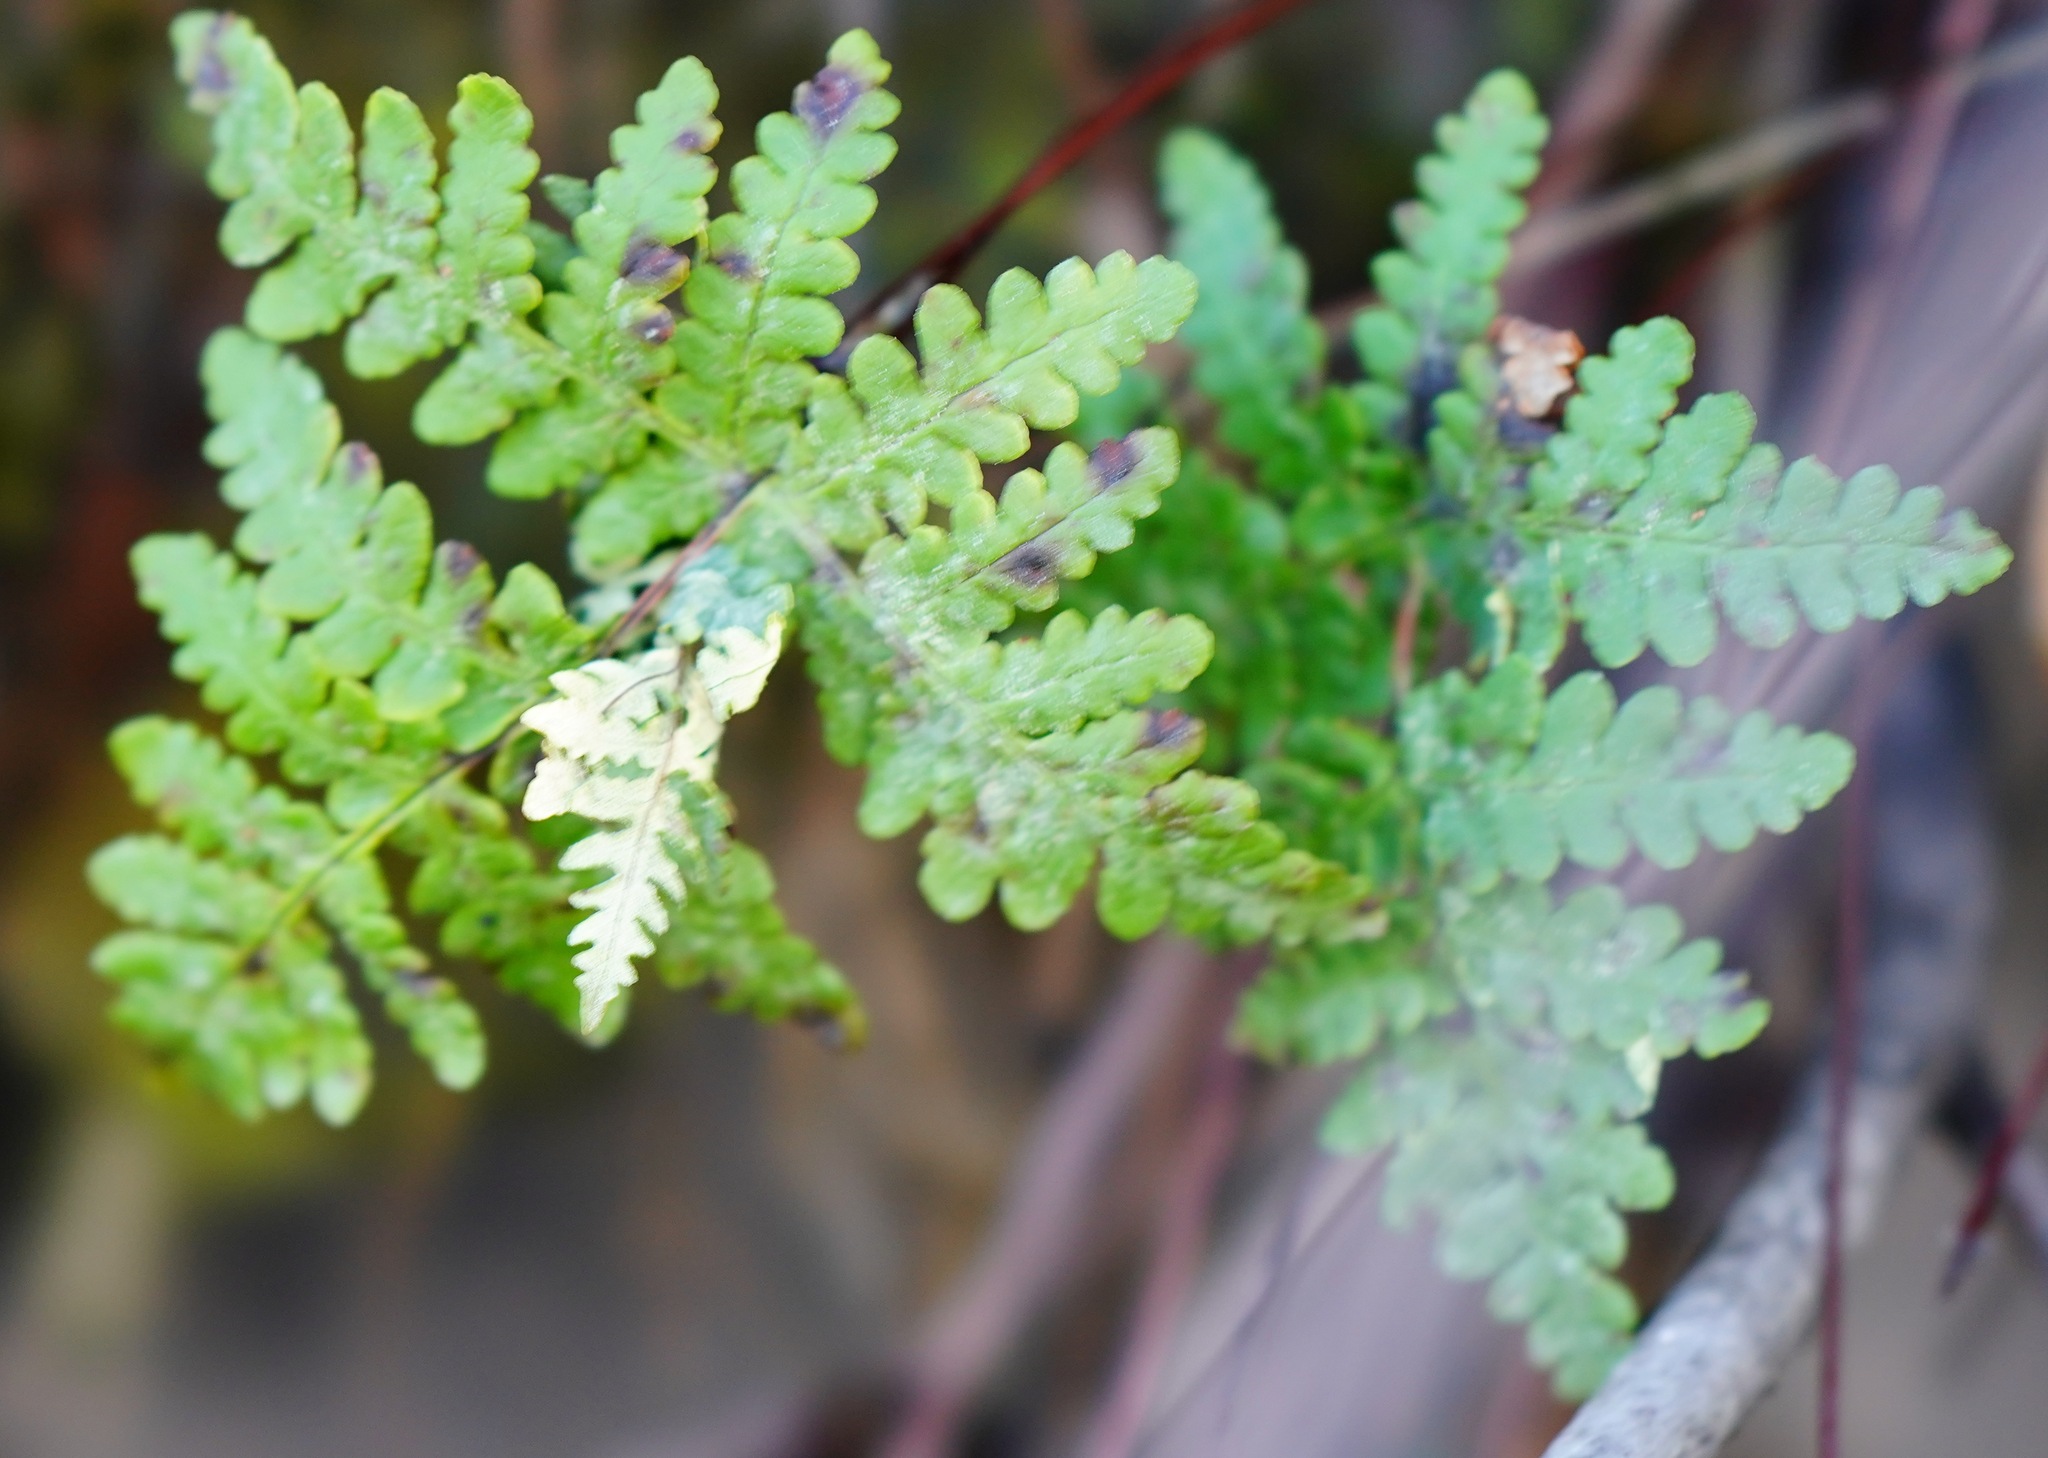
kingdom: Plantae
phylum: Tracheophyta
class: Polypodiopsida
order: Polypodiales
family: Pteridaceae
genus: Pentagramma
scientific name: Pentagramma triangularis
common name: Gold fern
